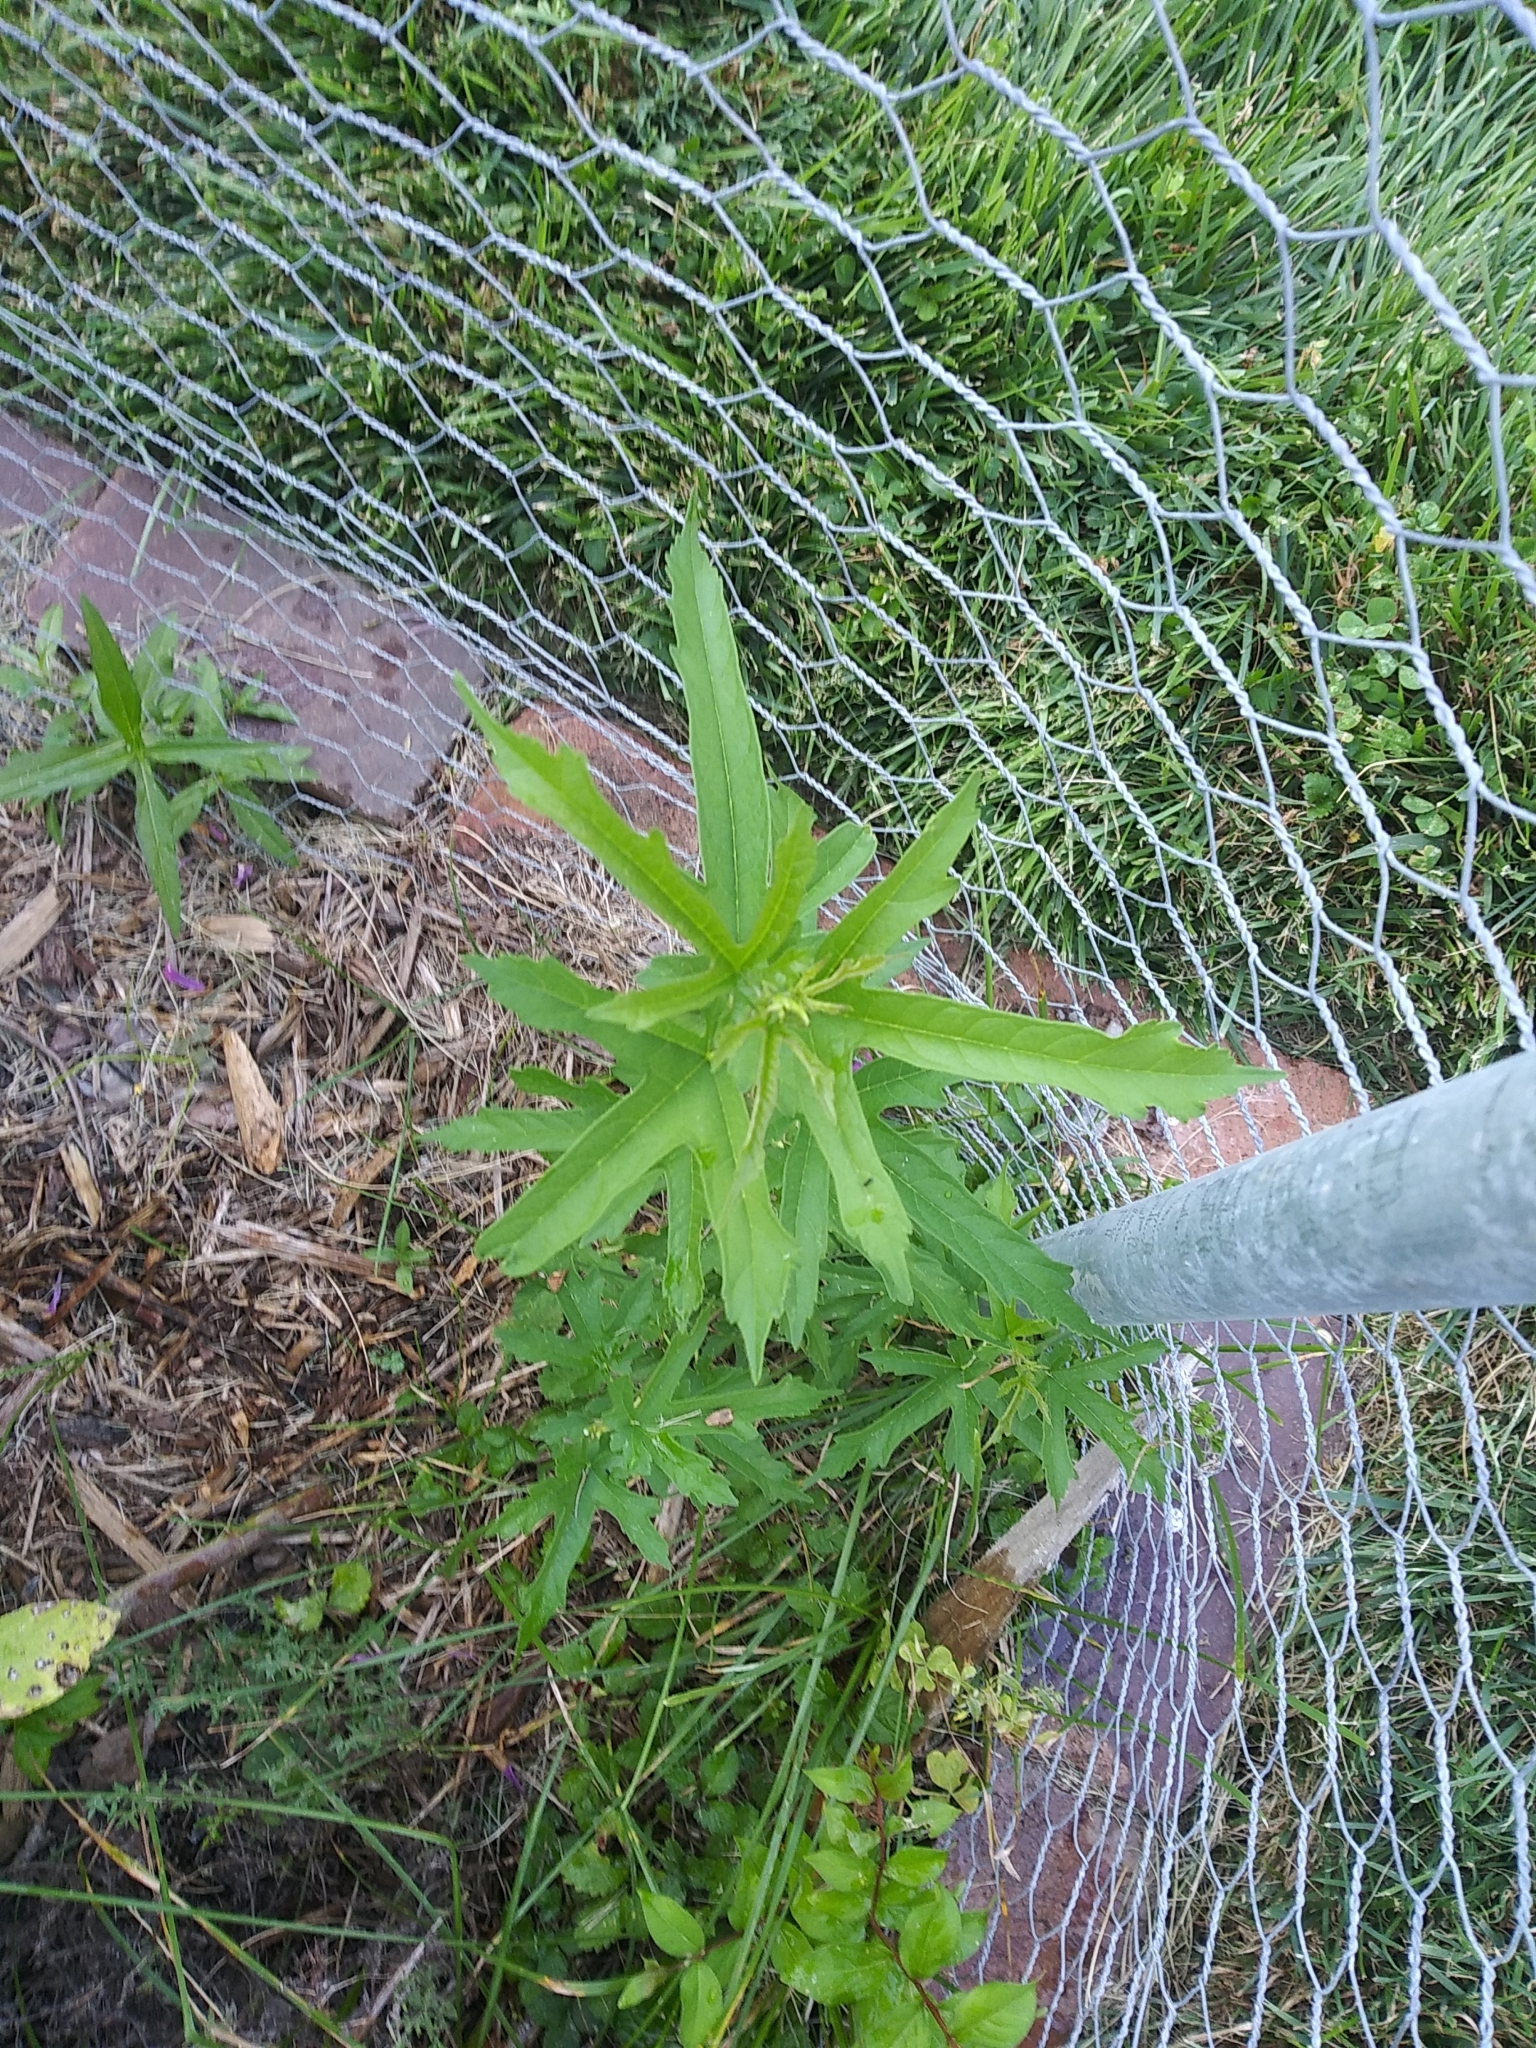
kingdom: Plantae
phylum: Tracheophyta
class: Magnoliopsida
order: Rosales
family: Moraceae
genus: Morus
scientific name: Morus indica
